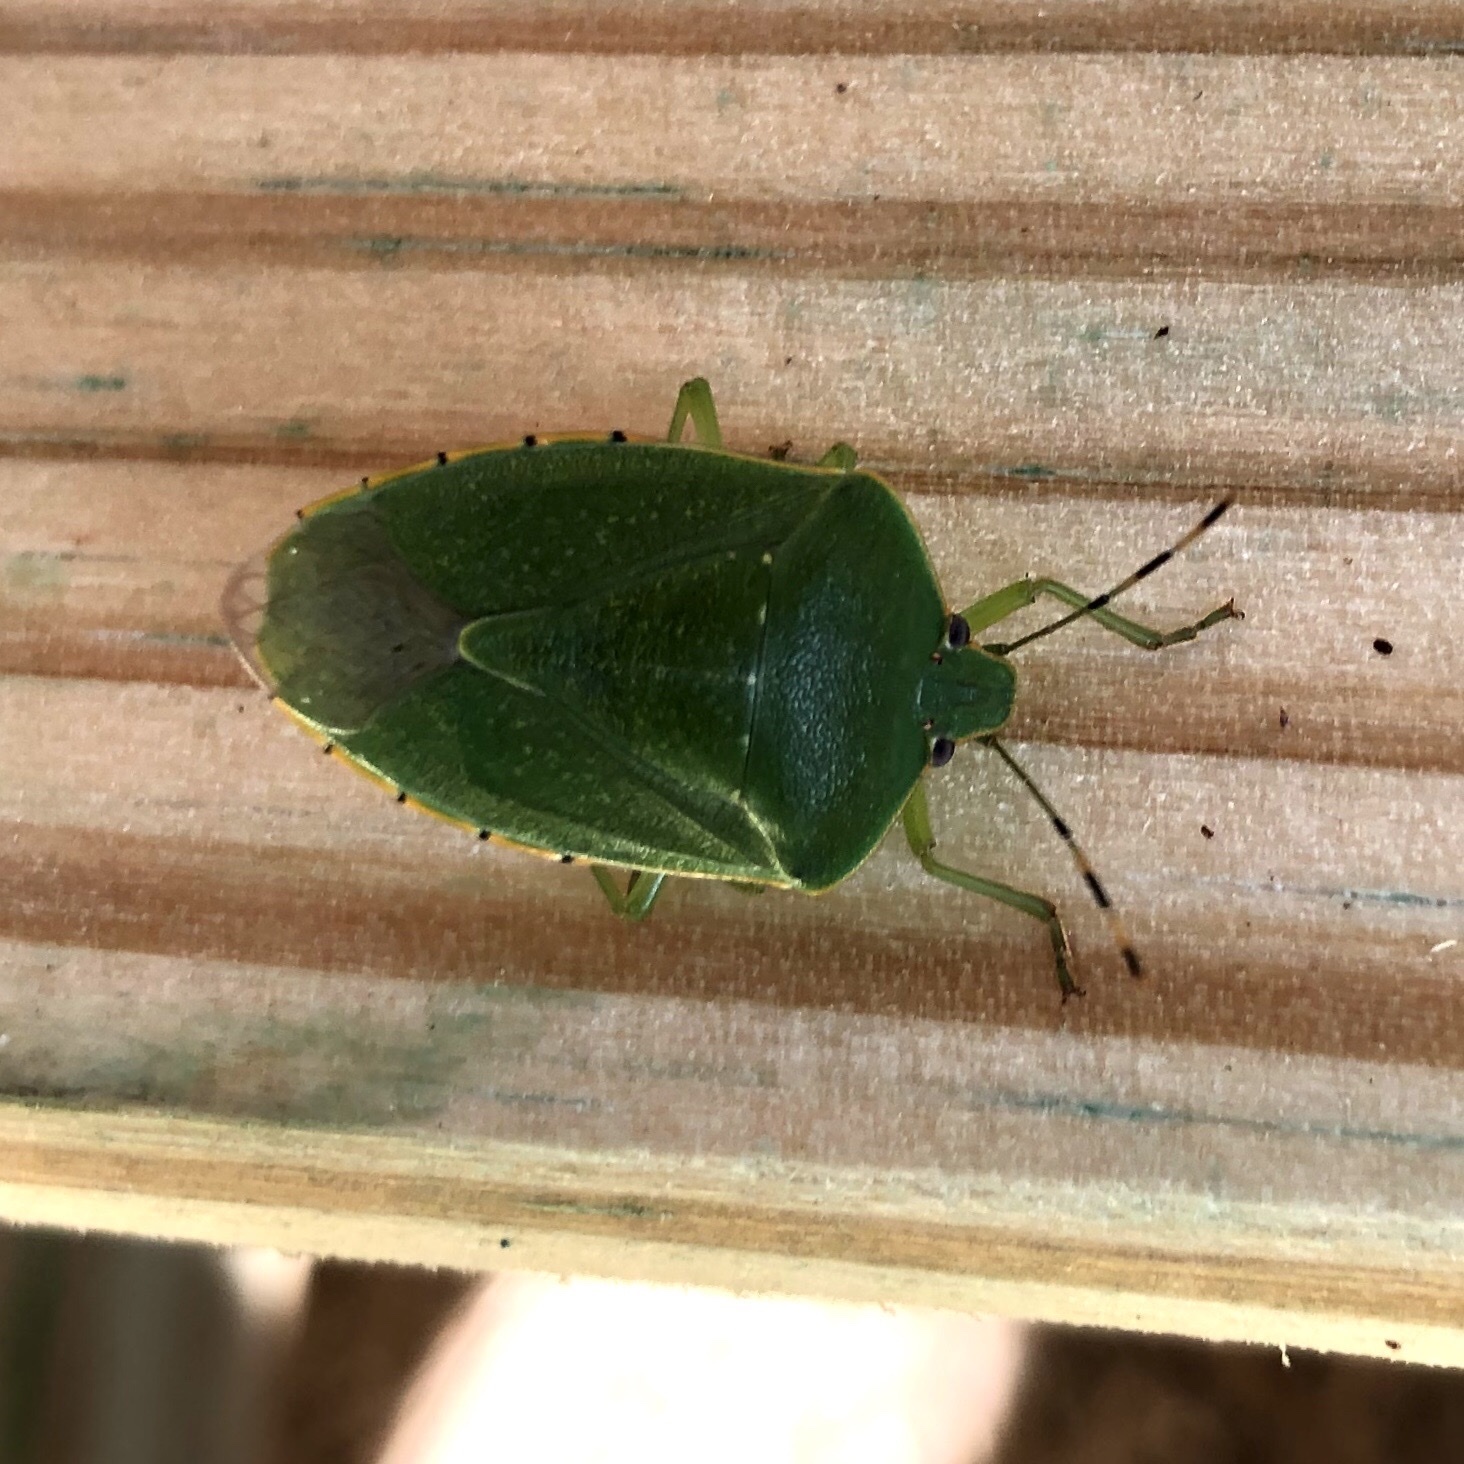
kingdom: Animalia
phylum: Arthropoda
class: Insecta
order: Hemiptera
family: Pentatomidae
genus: Chinavia
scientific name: Chinavia hilaris
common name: Green stink bug
